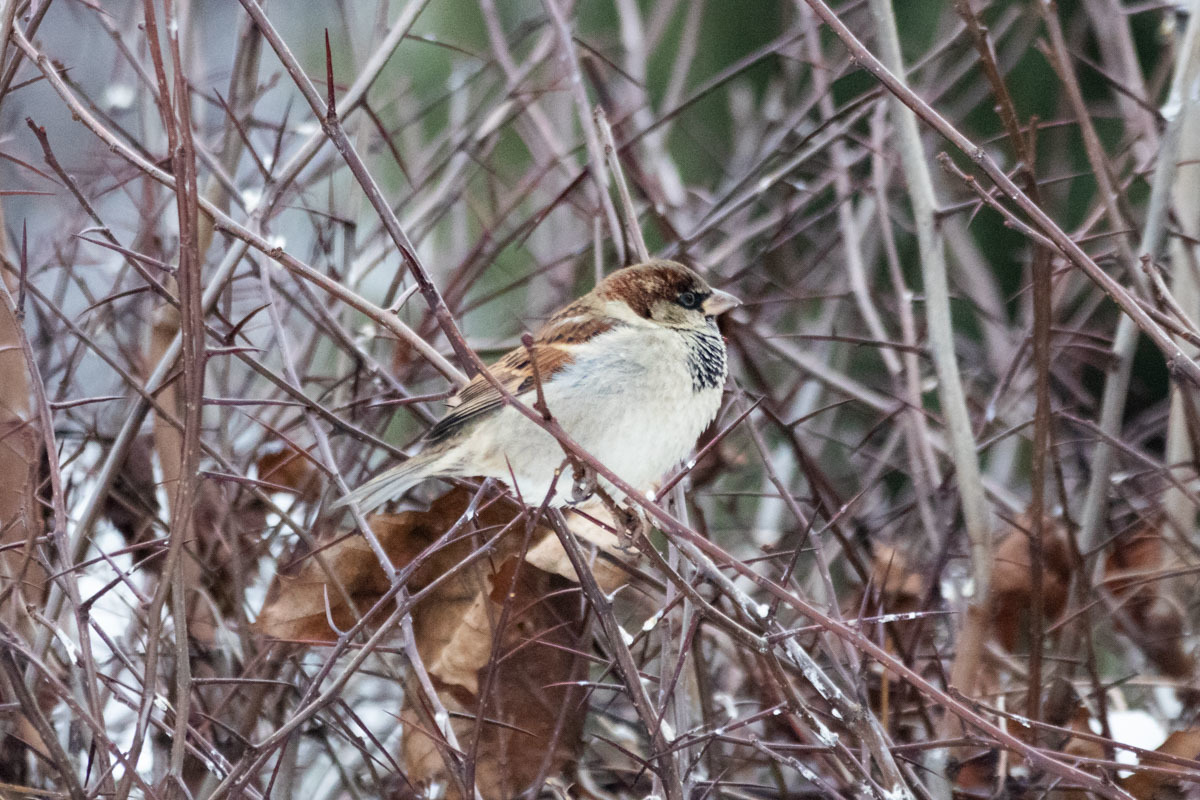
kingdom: Animalia
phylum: Chordata
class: Aves
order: Passeriformes
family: Passeridae
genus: Passer
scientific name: Passer domesticus
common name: House sparrow
